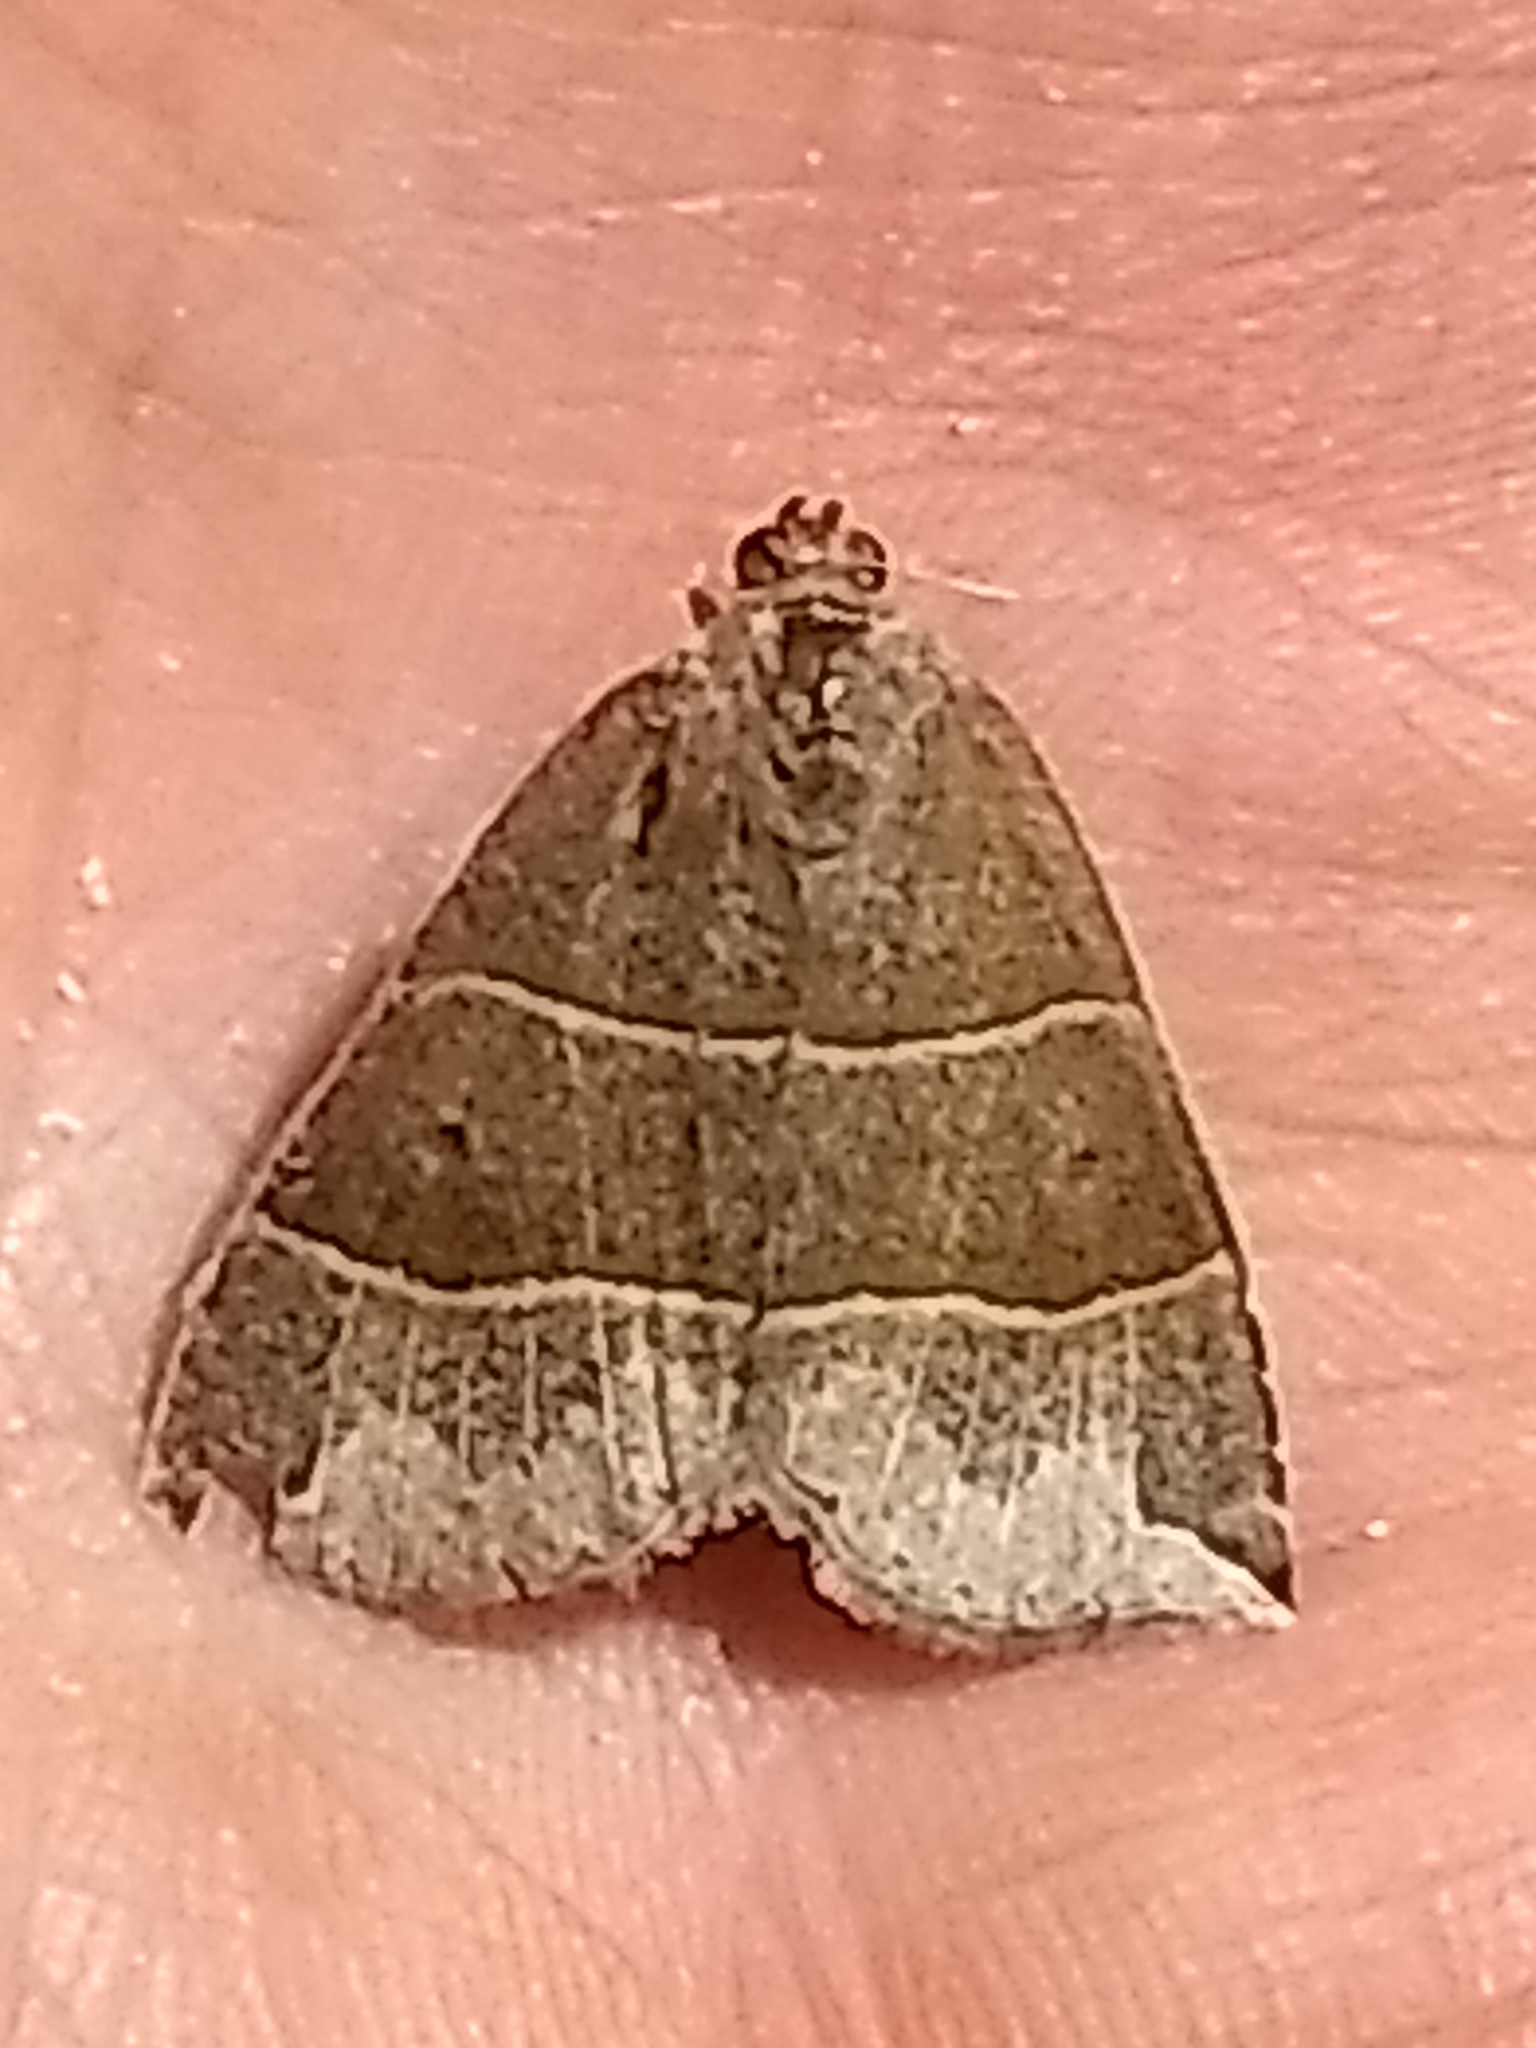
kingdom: Animalia
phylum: Arthropoda
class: Insecta
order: Lepidoptera
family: Erebidae
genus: Parallelia
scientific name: Parallelia bistriaris
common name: Maple looper moth
